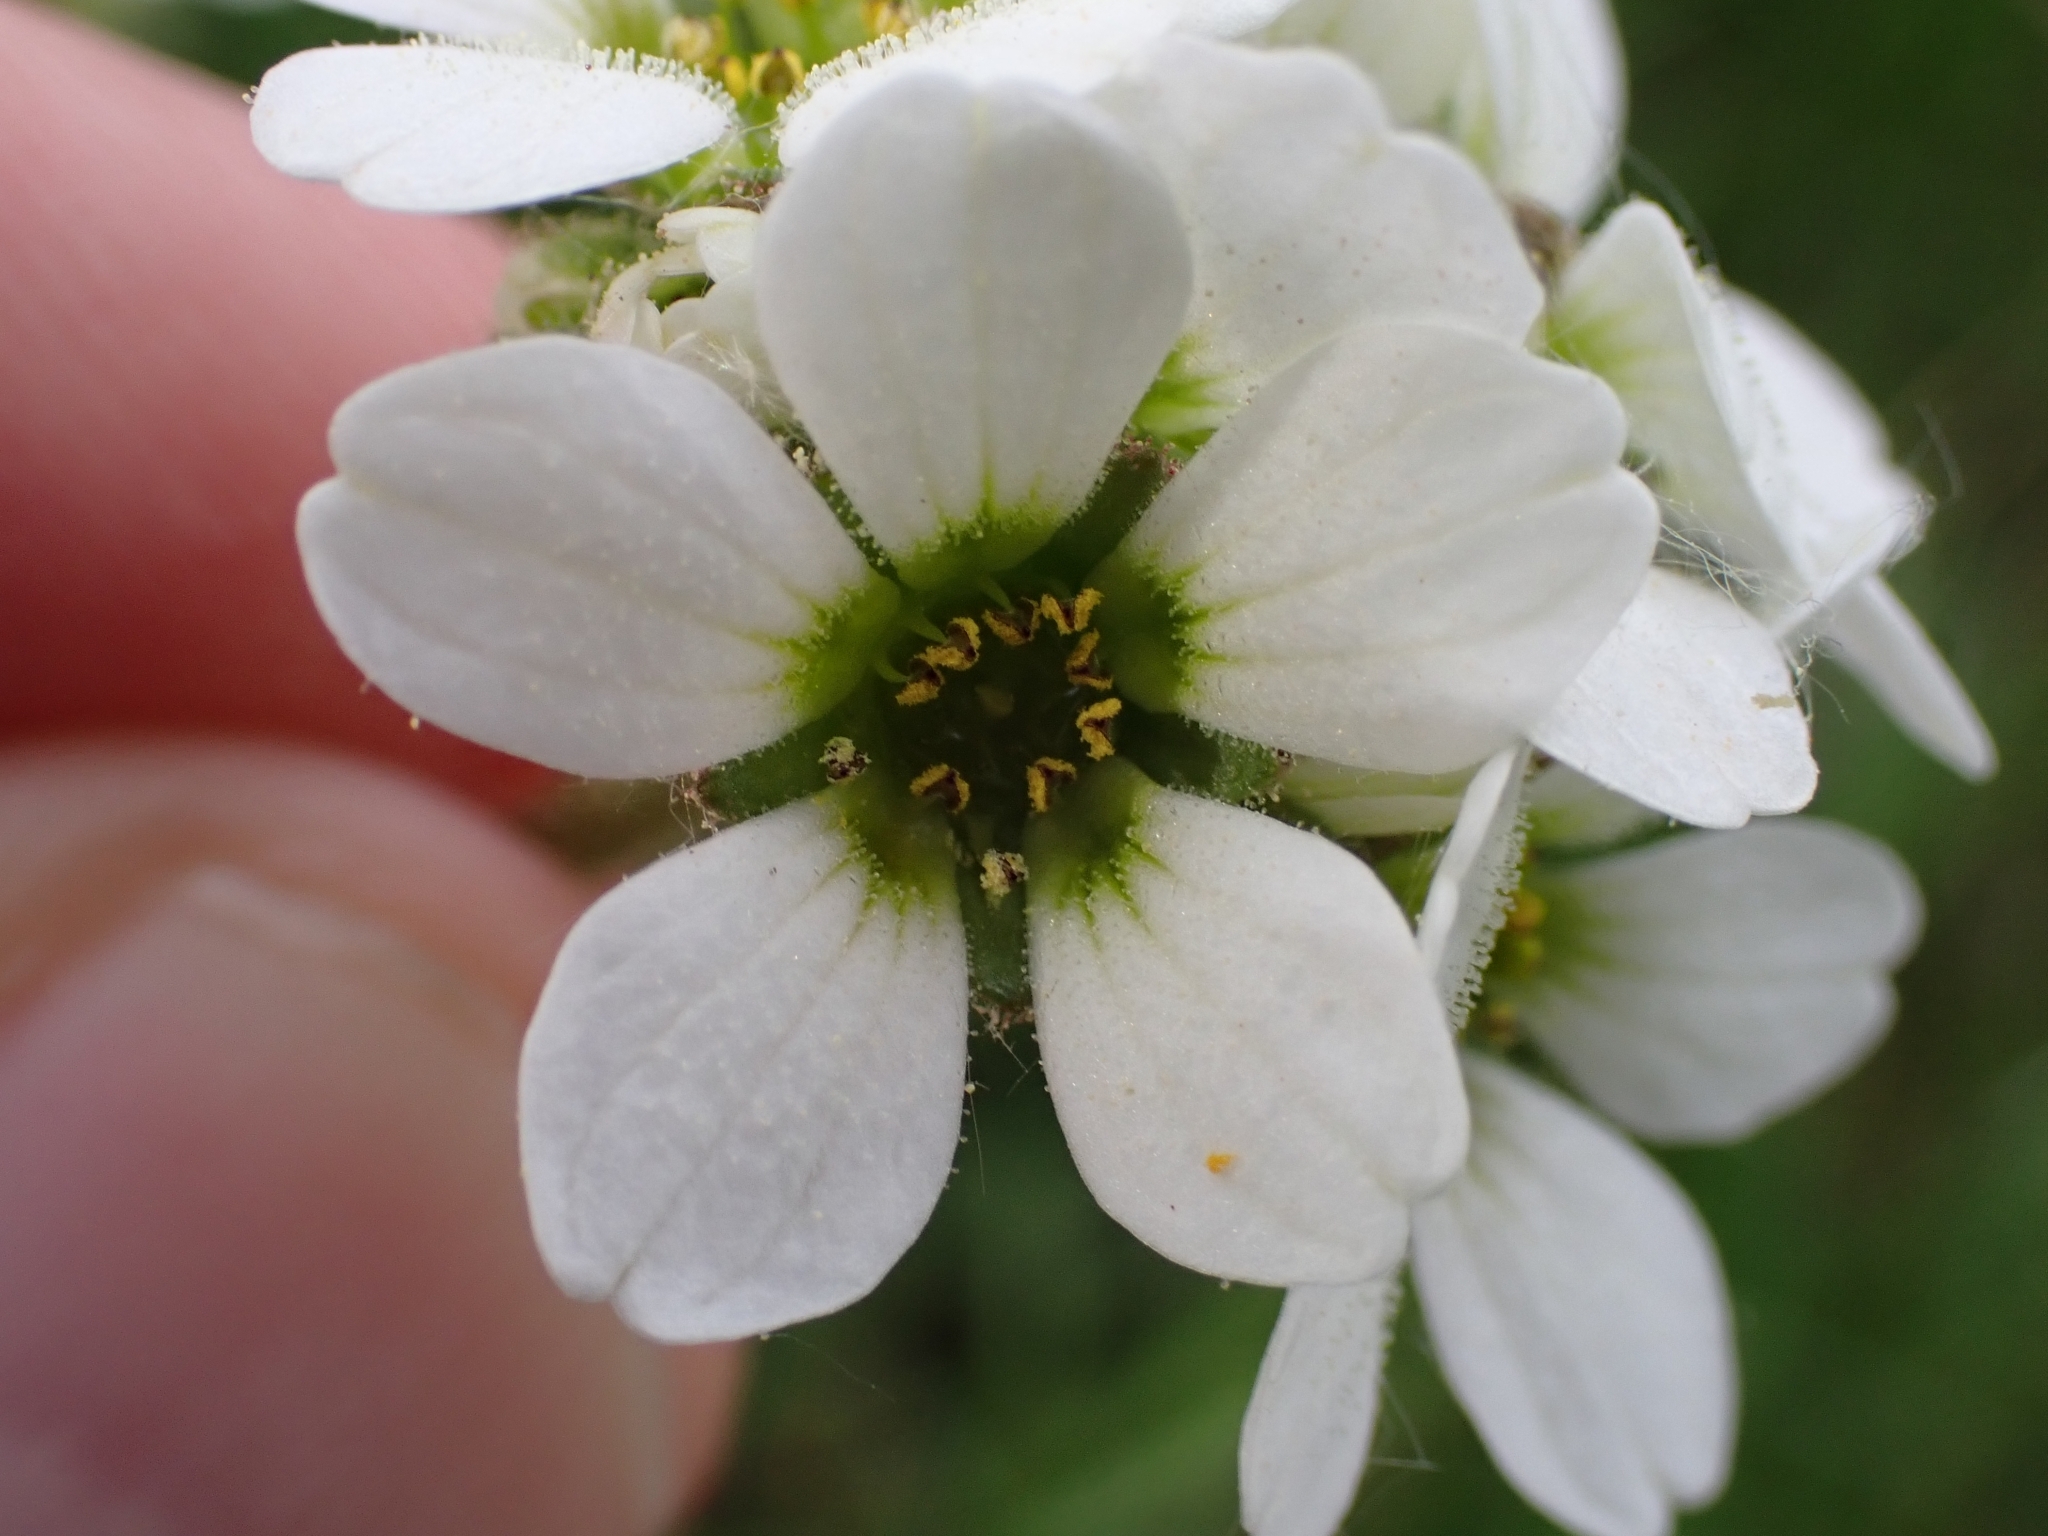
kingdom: Plantae
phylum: Tracheophyta
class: Magnoliopsida
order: Saxifragales
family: Saxifragaceae
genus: Saxifraga
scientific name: Saxifraga bulbifera
